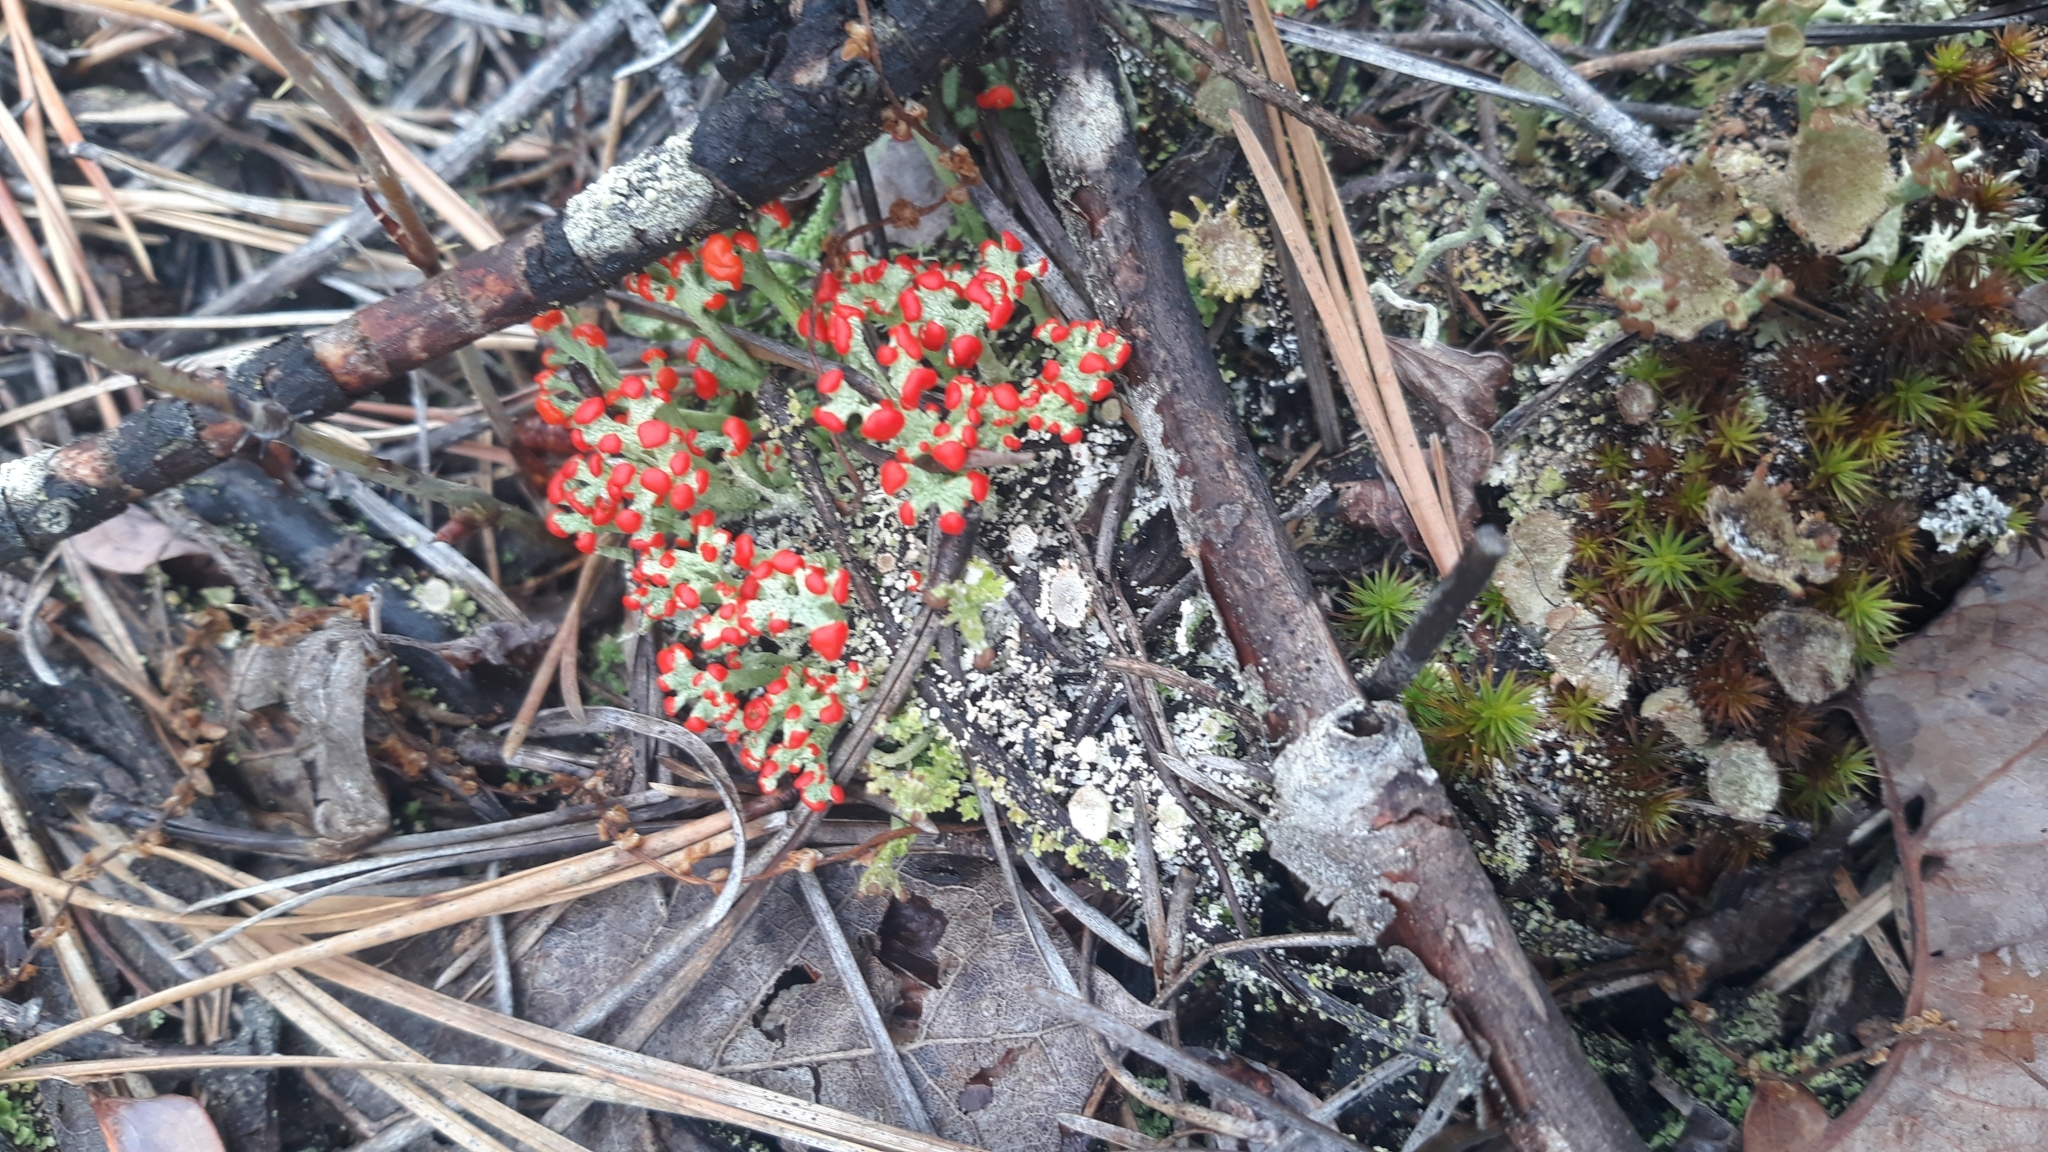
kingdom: Fungi
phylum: Ascomycota
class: Lecanoromycetes
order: Lecanorales
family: Cladoniaceae
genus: Cladonia
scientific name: Cladonia cristatella
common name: British soldier lichen
